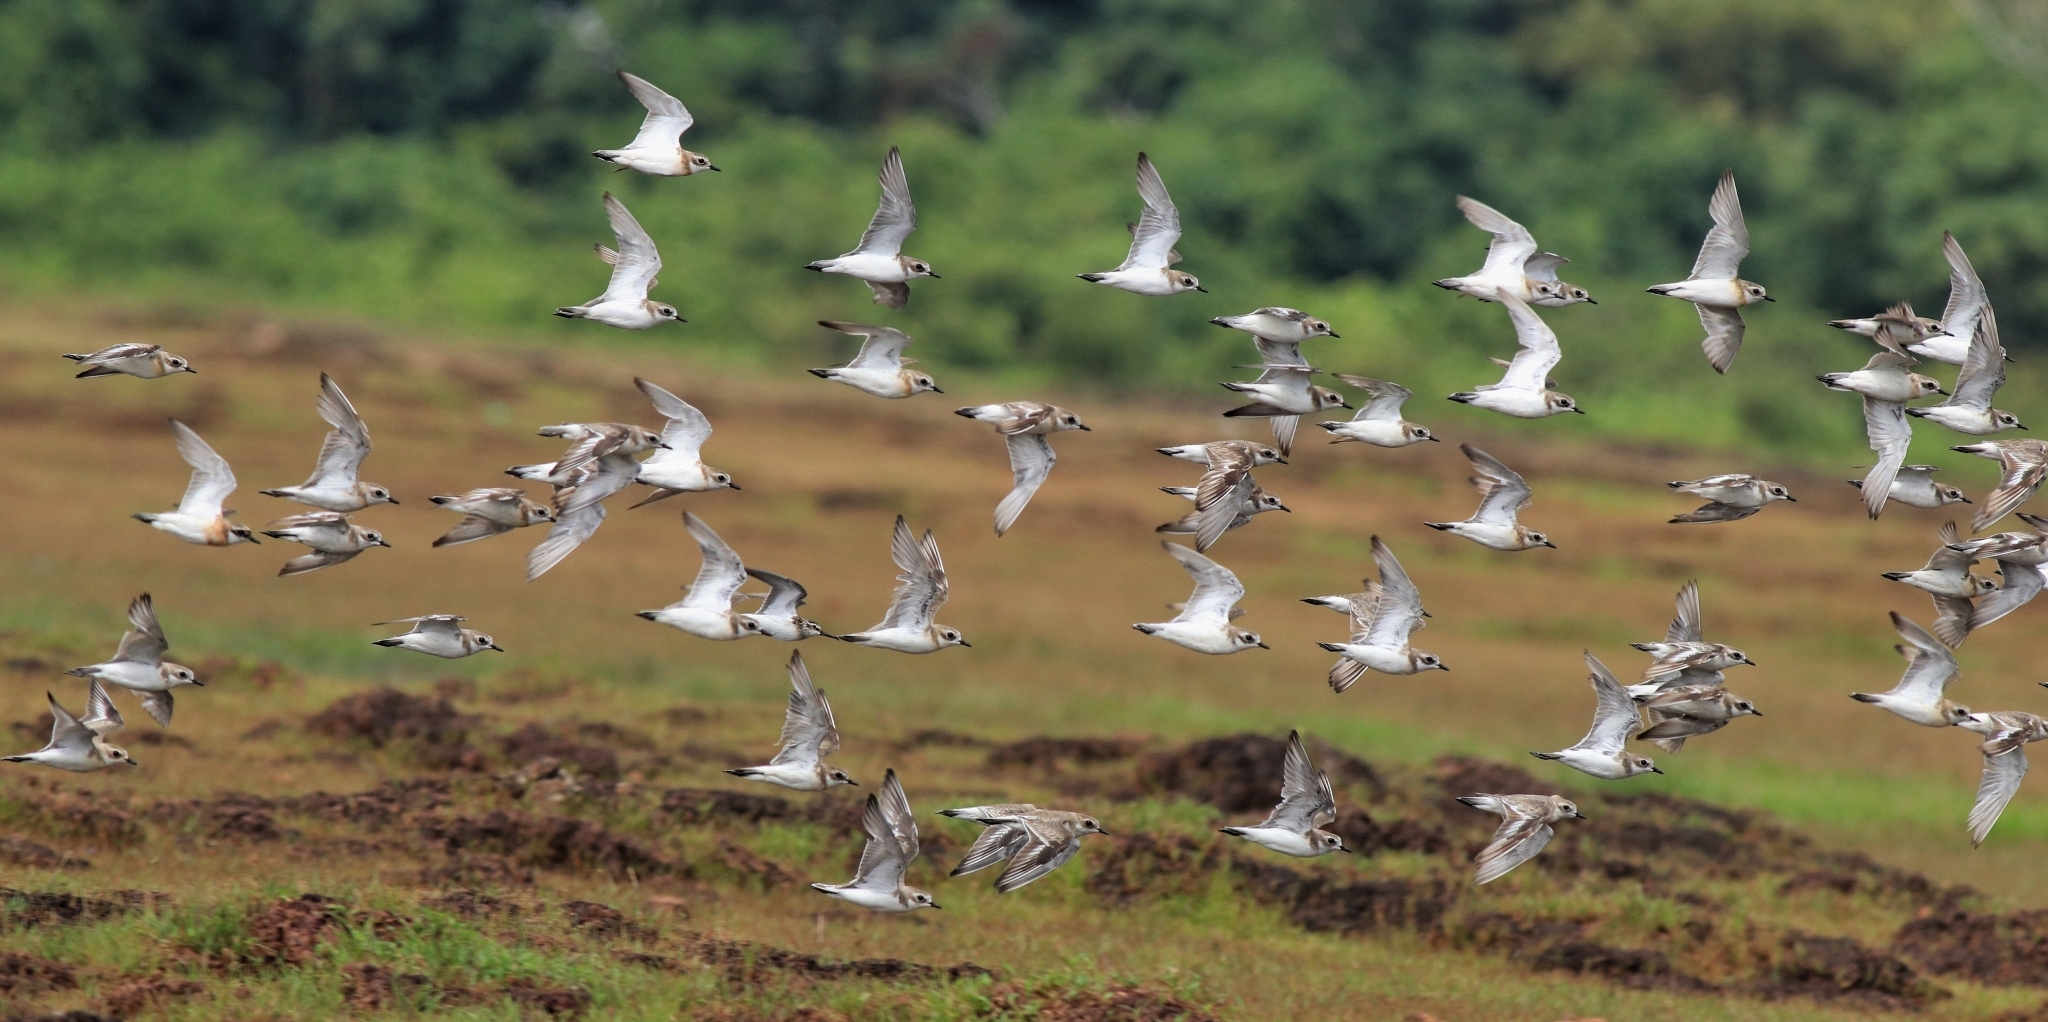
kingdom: Animalia
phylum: Chordata
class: Aves
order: Charadriiformes
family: Charadriidae
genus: Anarhynchus
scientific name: Anarhynchus
